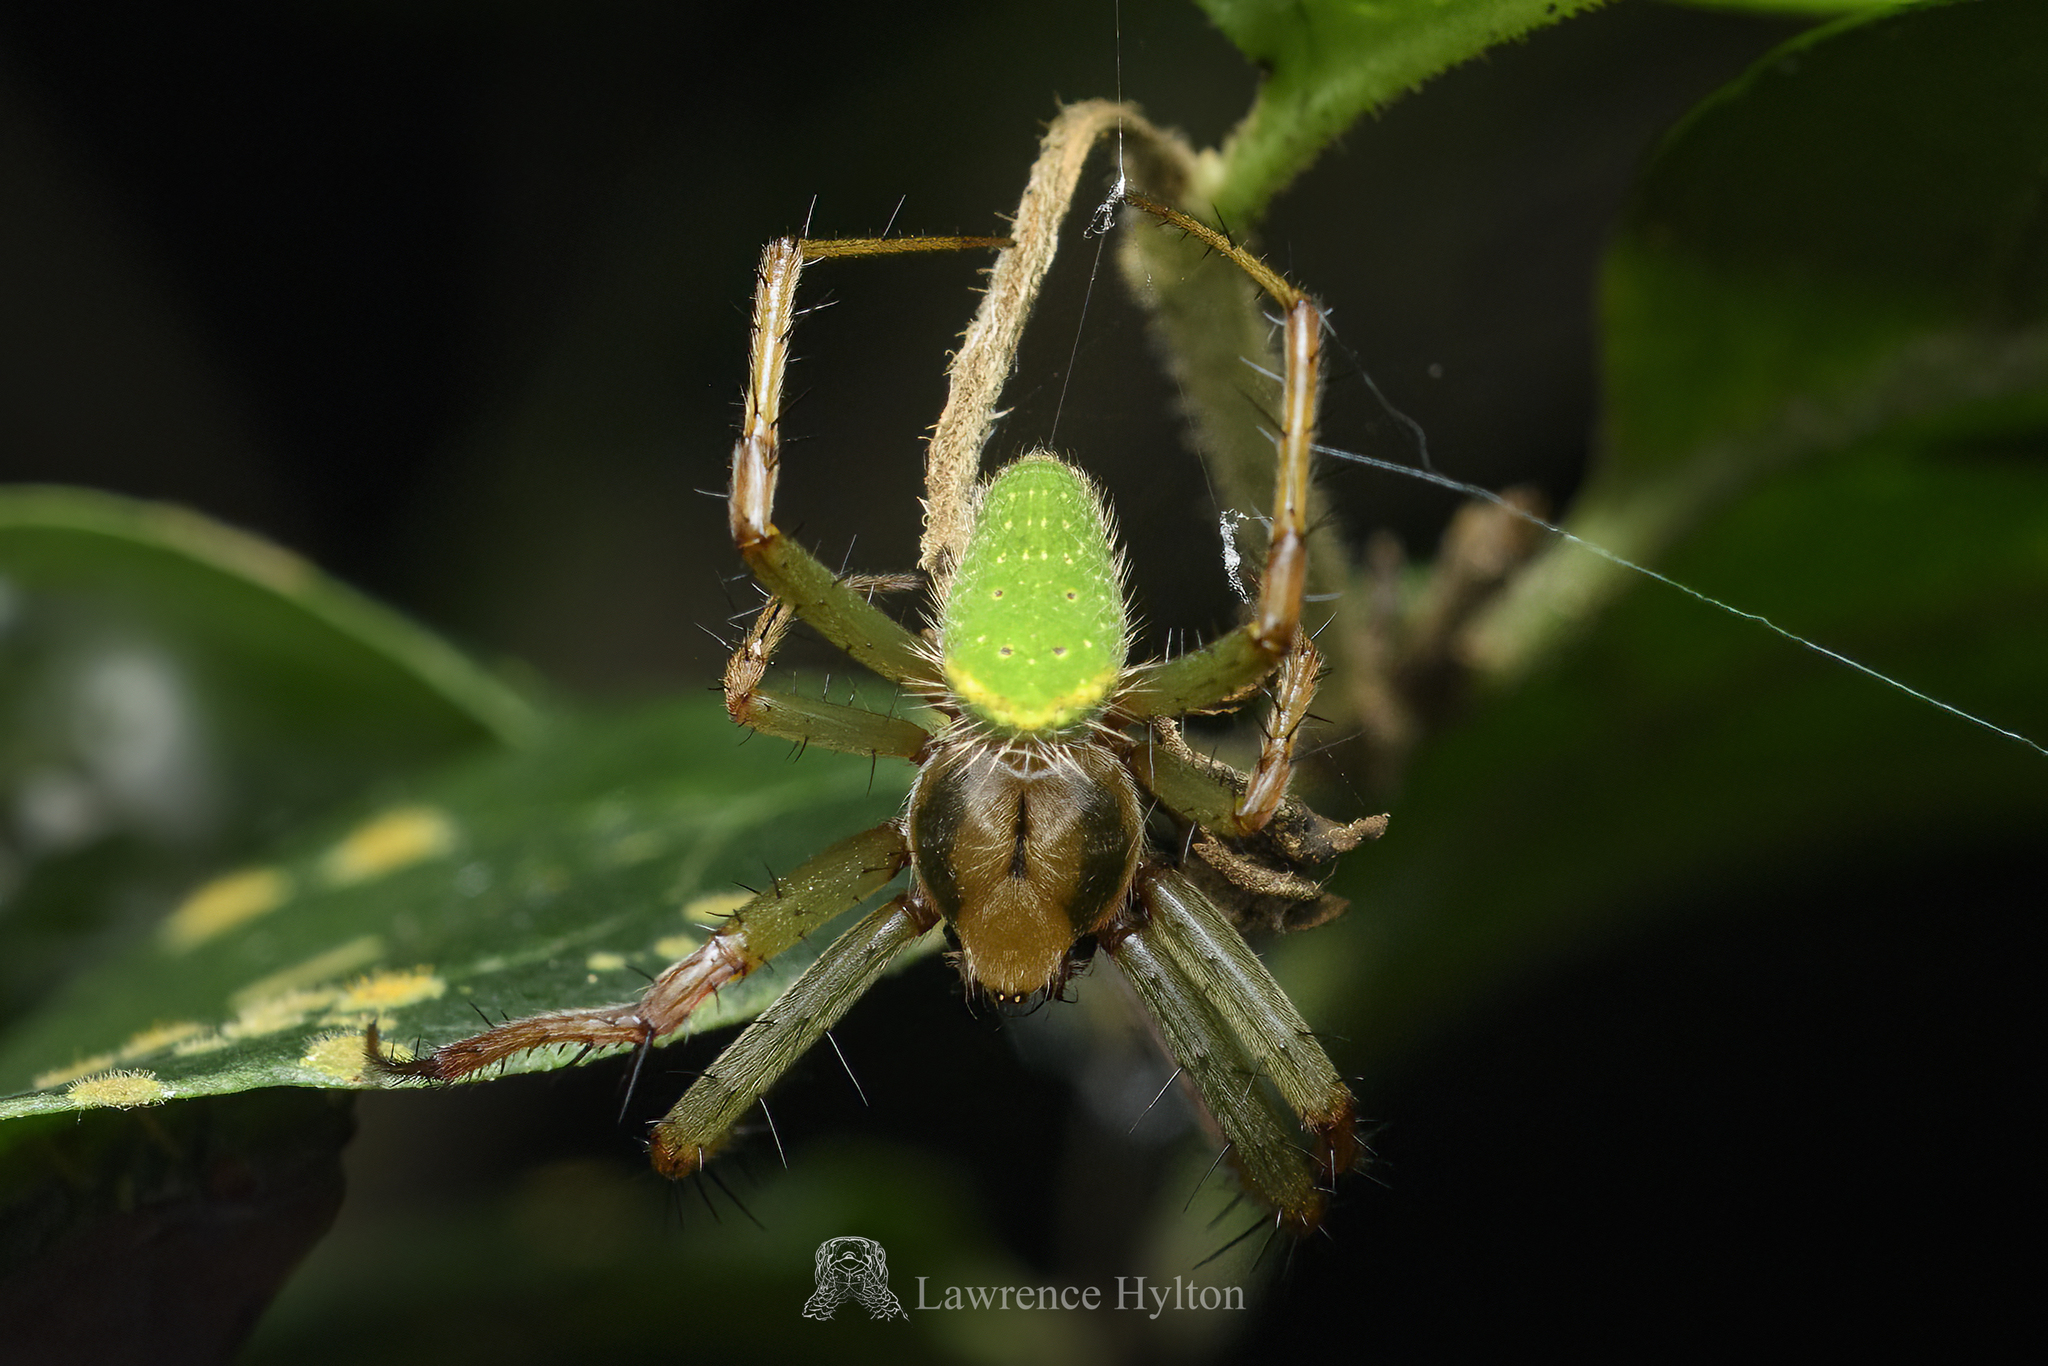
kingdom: Animalia
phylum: Arthropoda
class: Arachnida
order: Araneae
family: Araneidae
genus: Neoscona
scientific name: Neoscona scylloides
